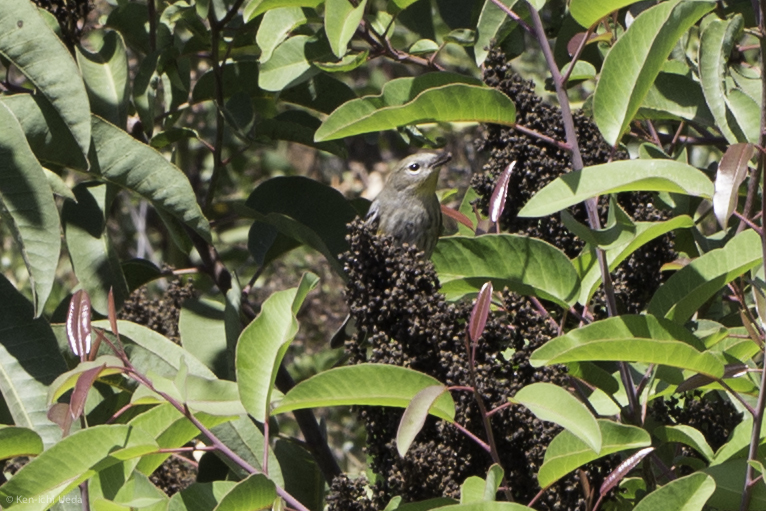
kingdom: Animalia
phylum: Chordata
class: Aves
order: Passeriformes
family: Parulidae
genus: Setophaga
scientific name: Setophaga coronata
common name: Myrtle warbler
